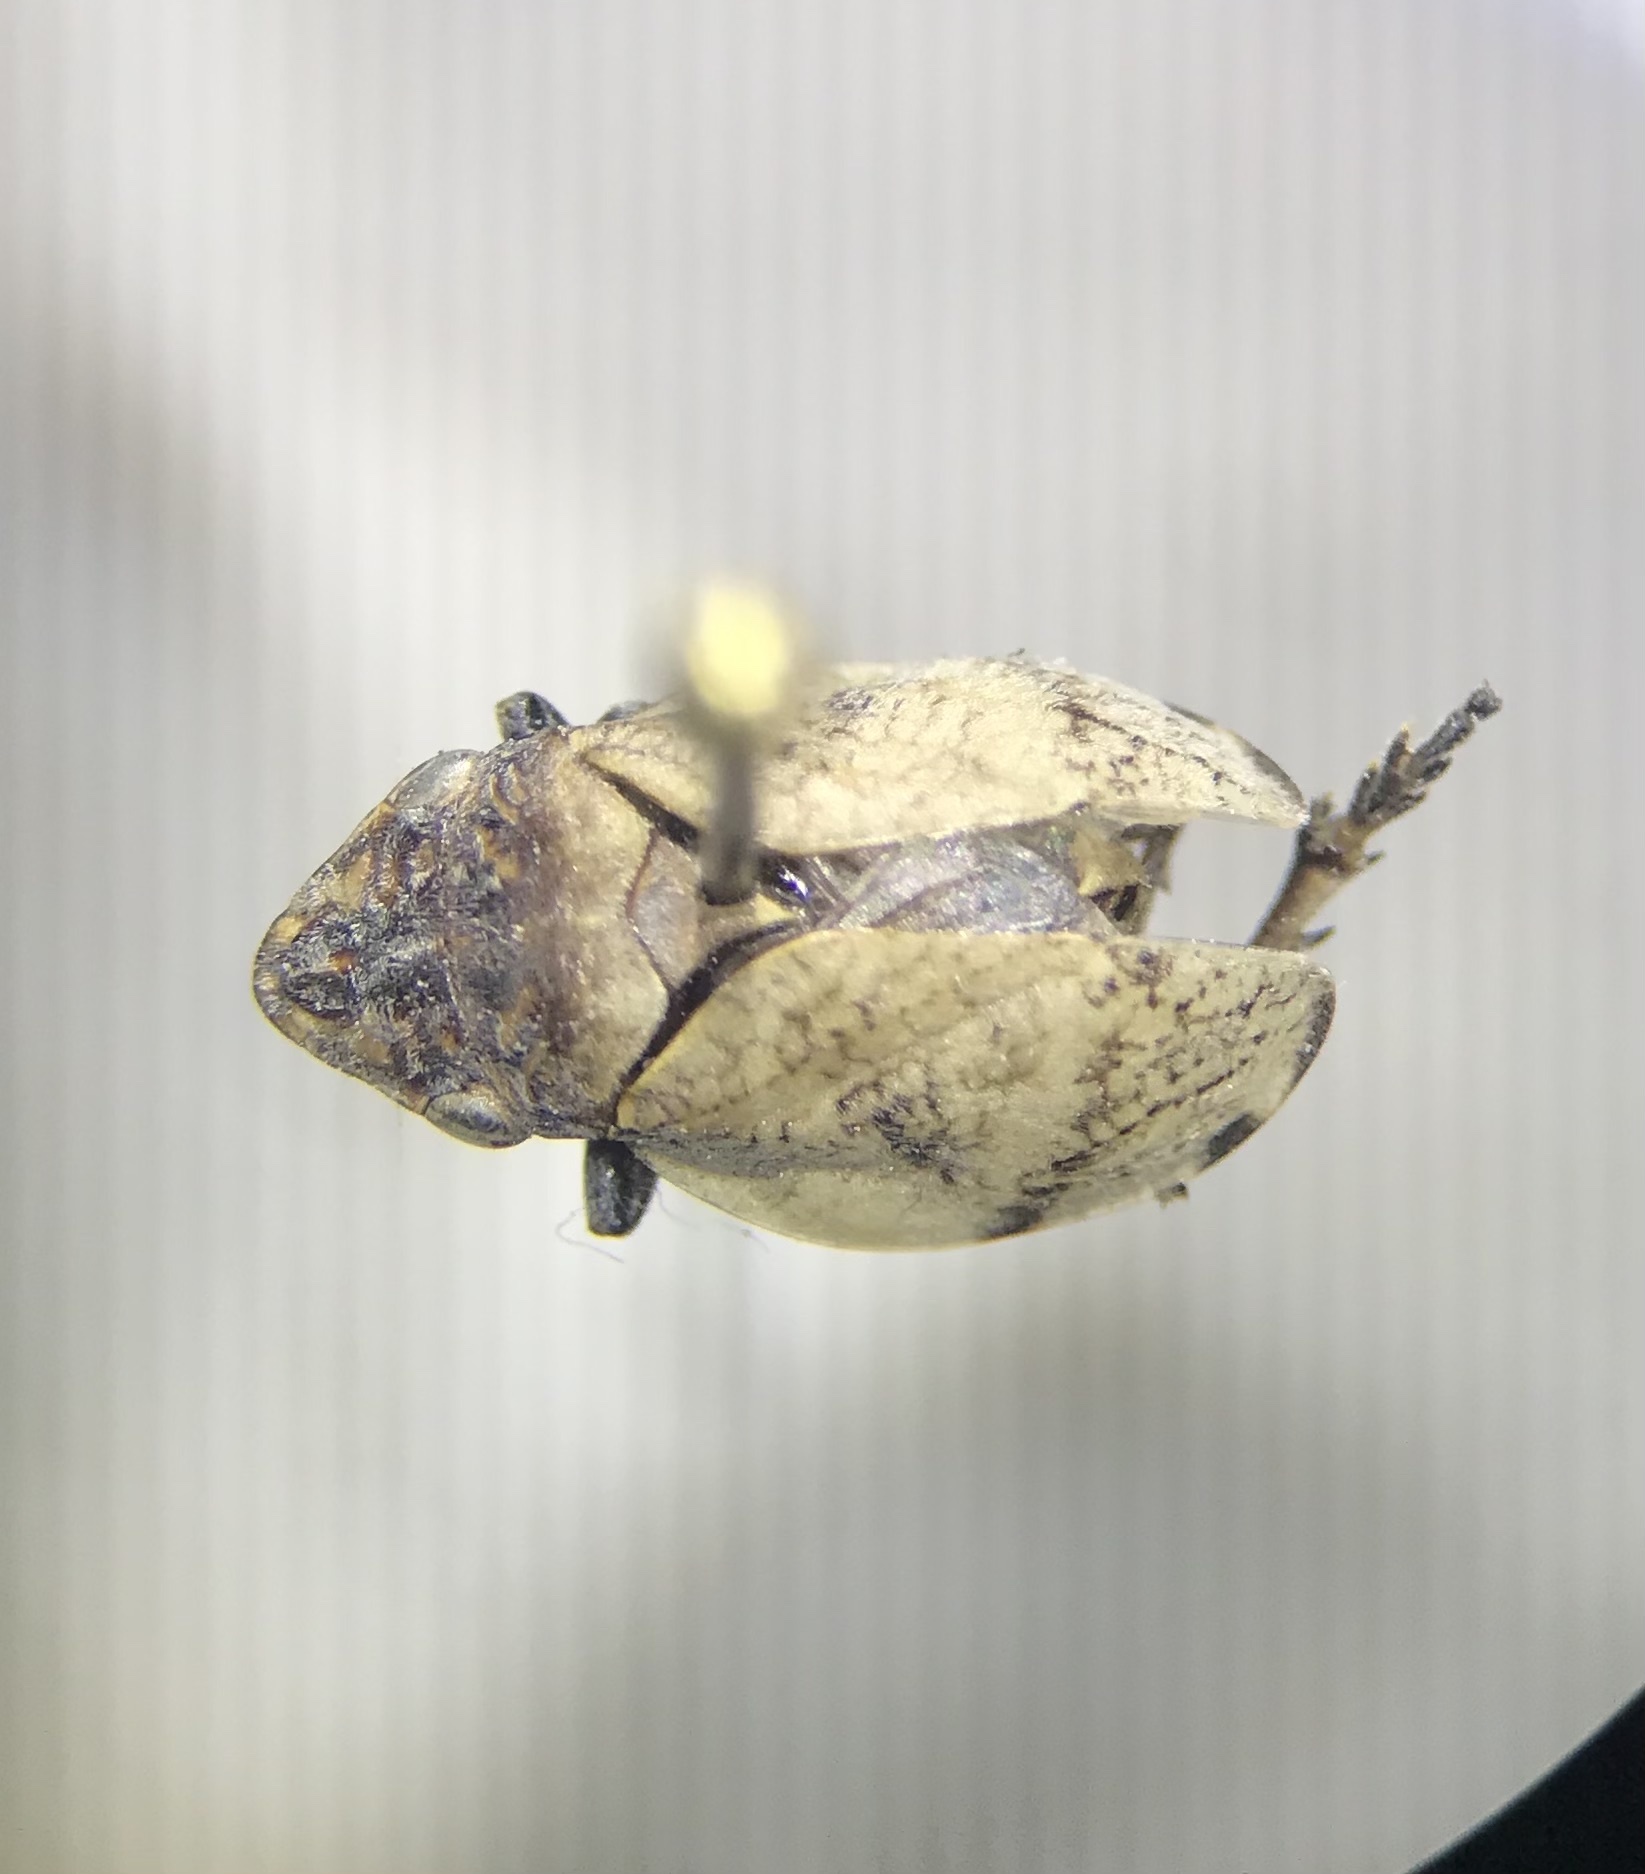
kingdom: Animalia
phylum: Arthropoda
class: Insecta
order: Hemiptera
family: Aphrophoridae
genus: Lepyronia
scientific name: Lepyronia gibbosa
